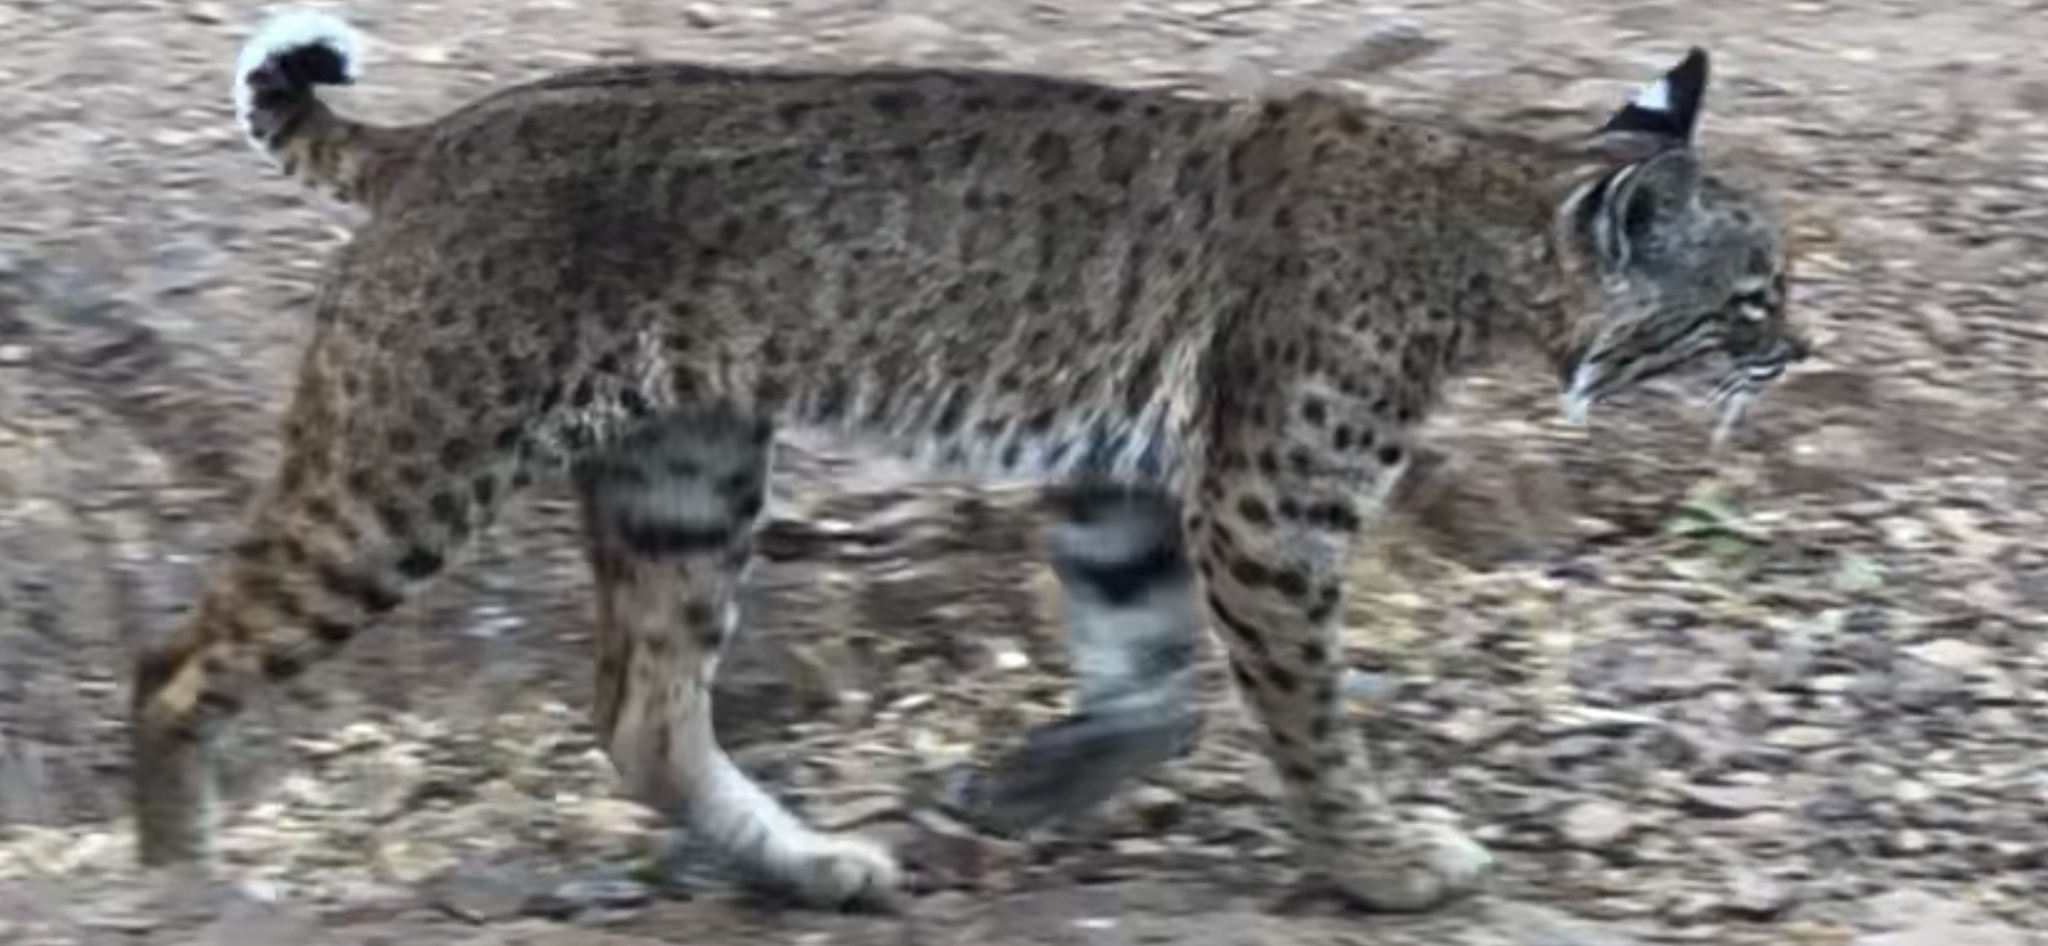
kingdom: Animalia
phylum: Chordata
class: Mammalia
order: Carnivora
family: Felidae
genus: Lynx
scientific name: Lynx rufus
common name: Bobcat
